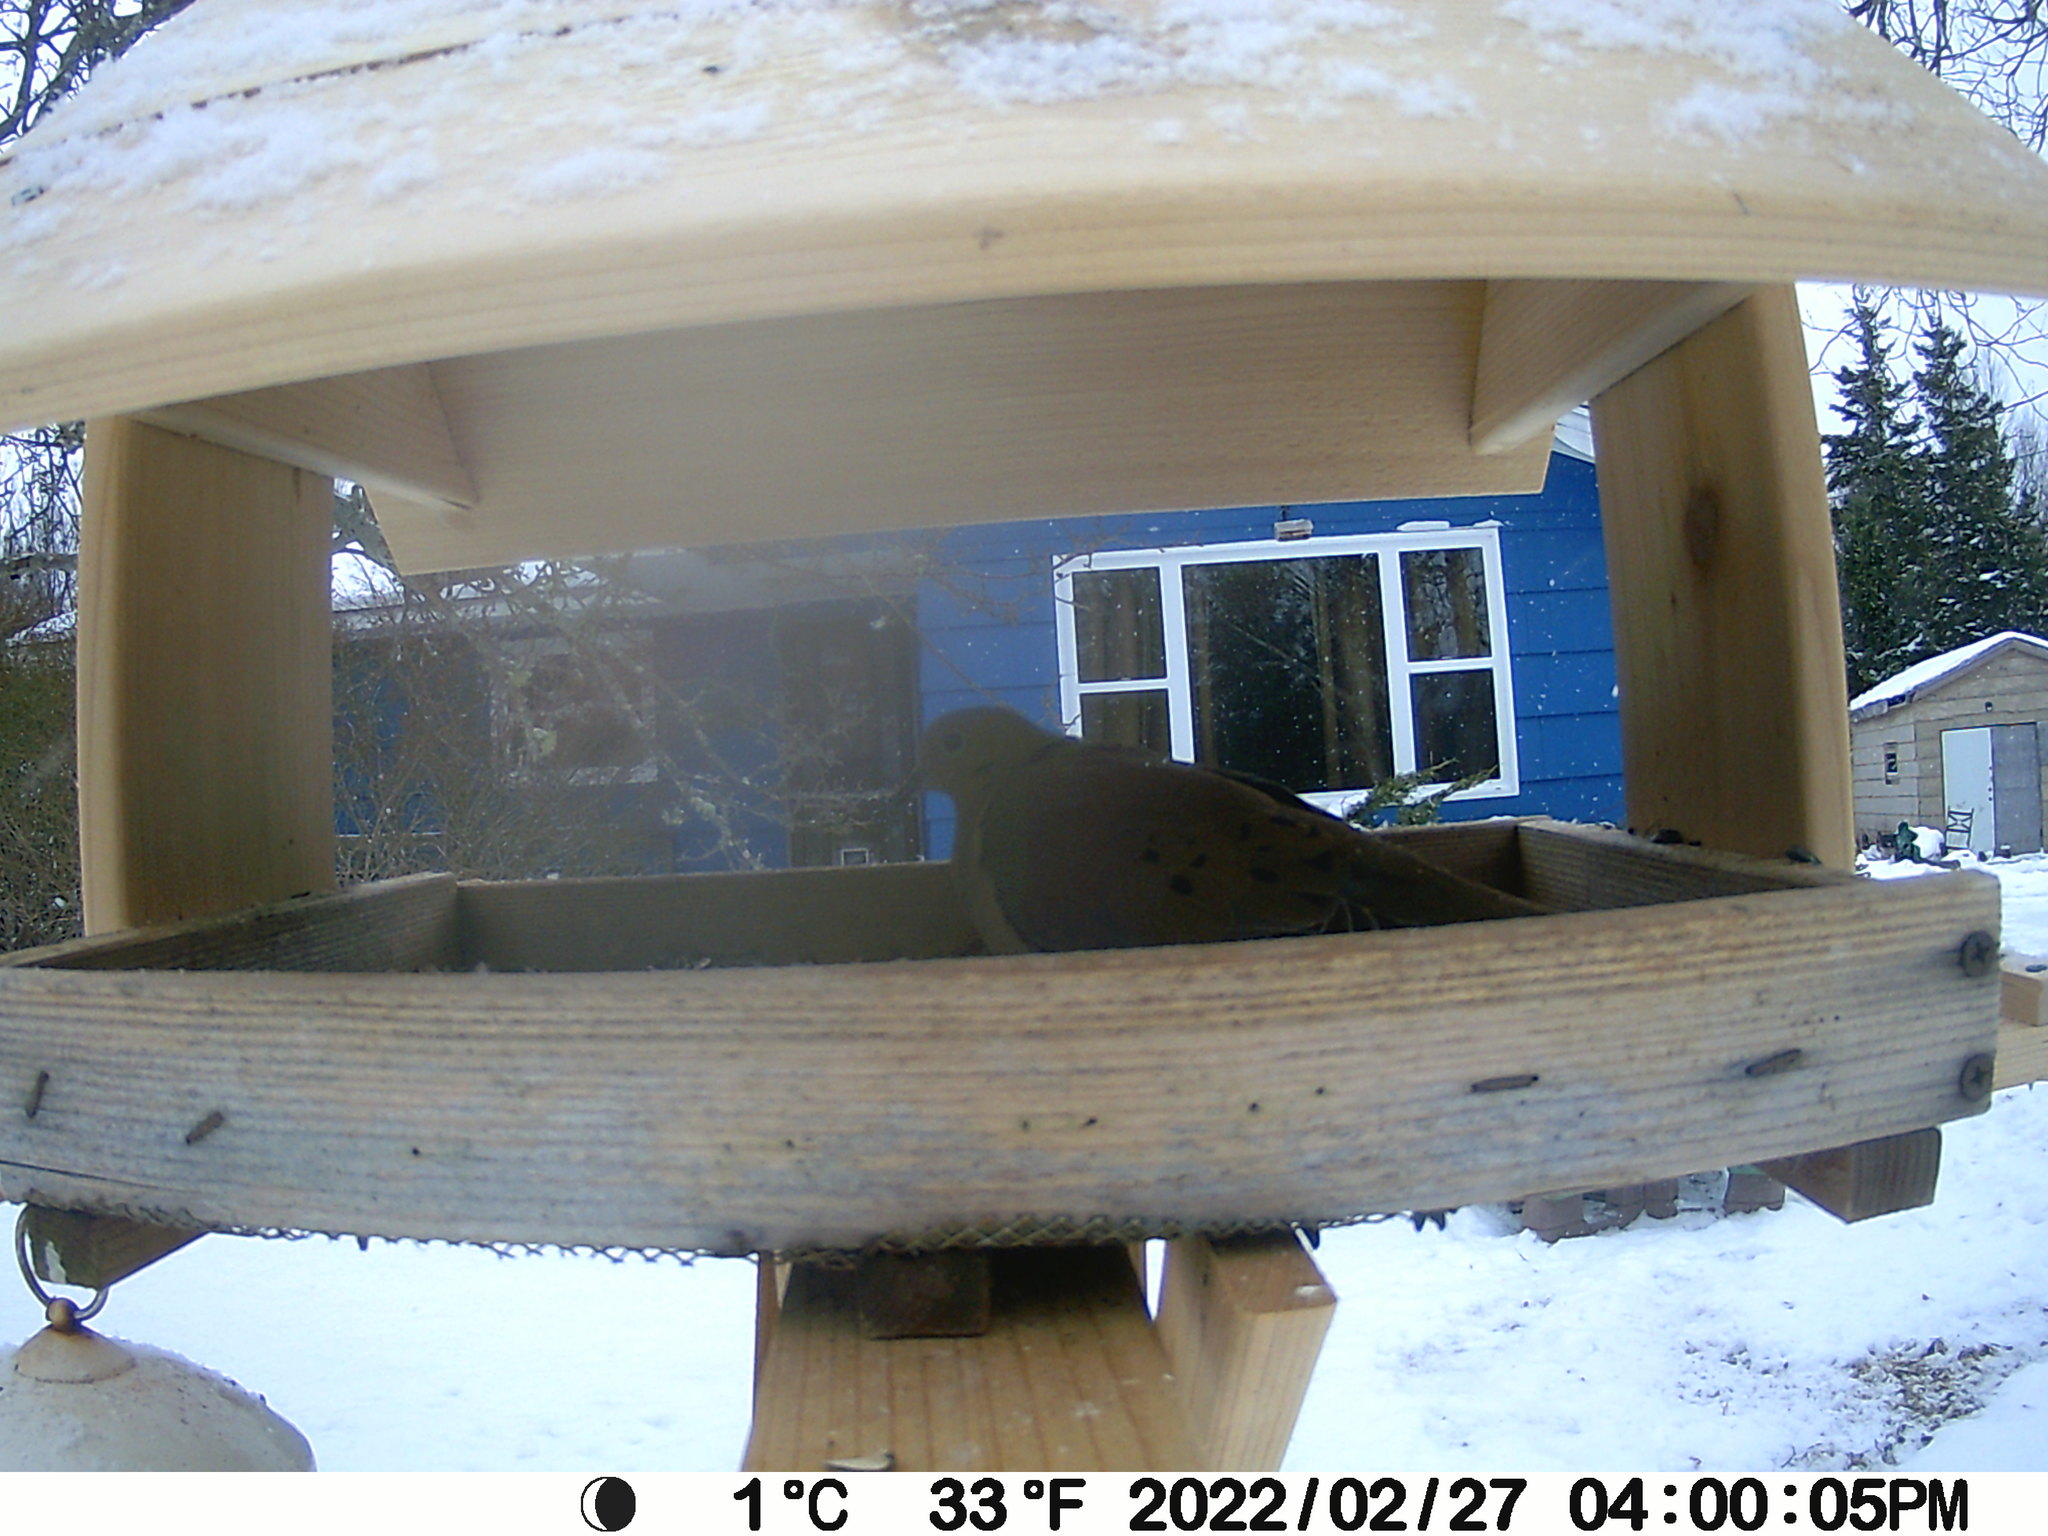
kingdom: Animalia
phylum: Chordata
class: Aves
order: Columbiformes
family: Columbidae
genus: Zenaida
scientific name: Zenaida macroura
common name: Mourning dove
